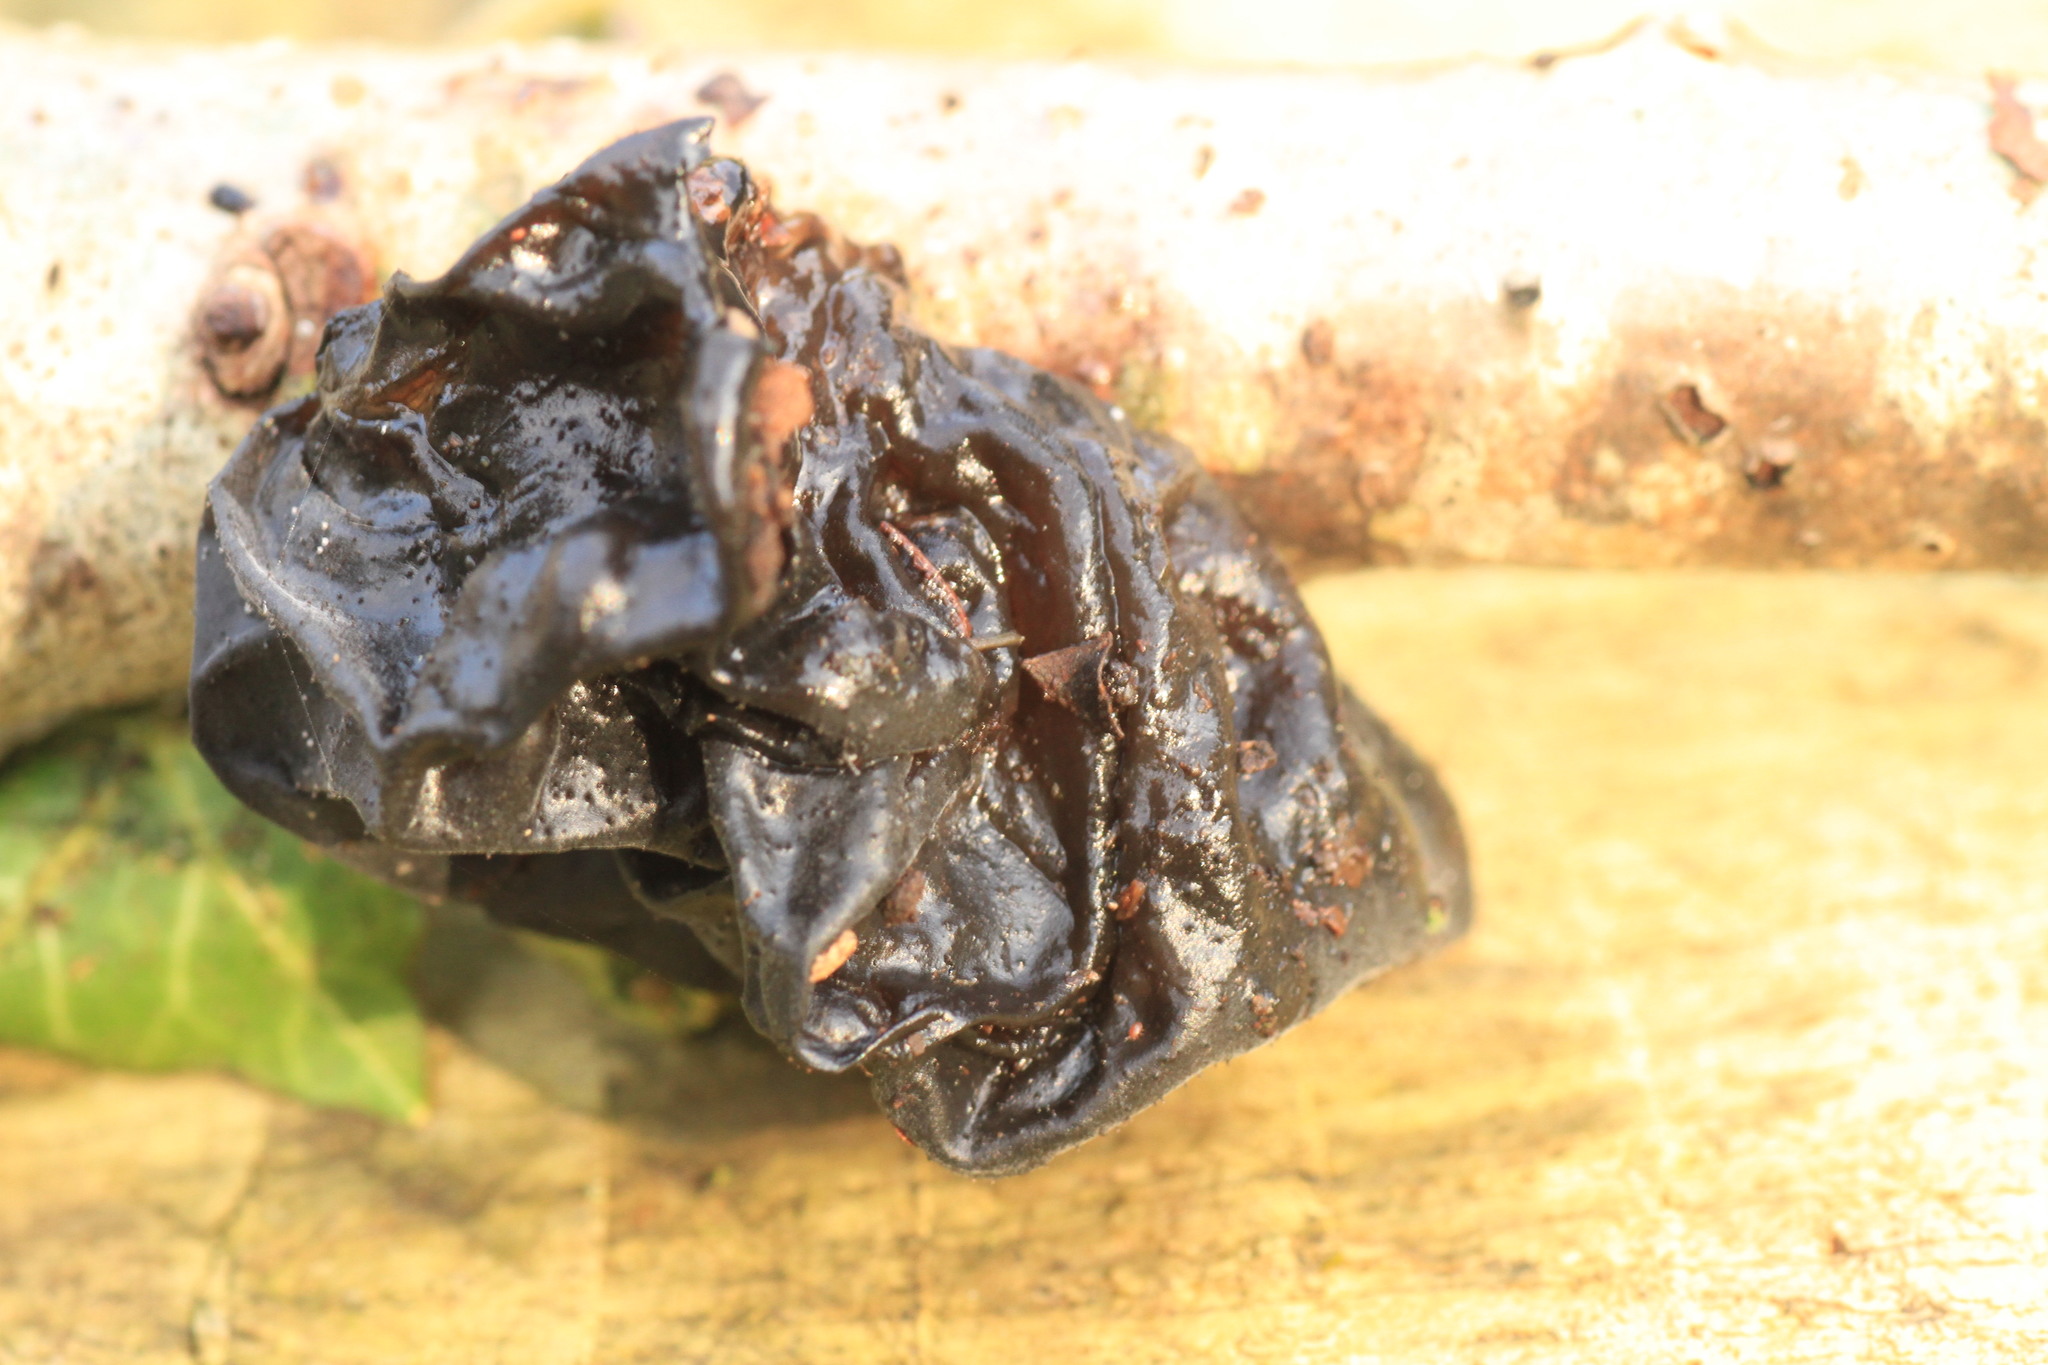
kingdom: Fungi
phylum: Basidiomycota
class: Agaricomycetes
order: Auriculariales
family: Auriculariaceae
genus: Exidia
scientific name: Exidia glandulosa
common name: Witches' butter
